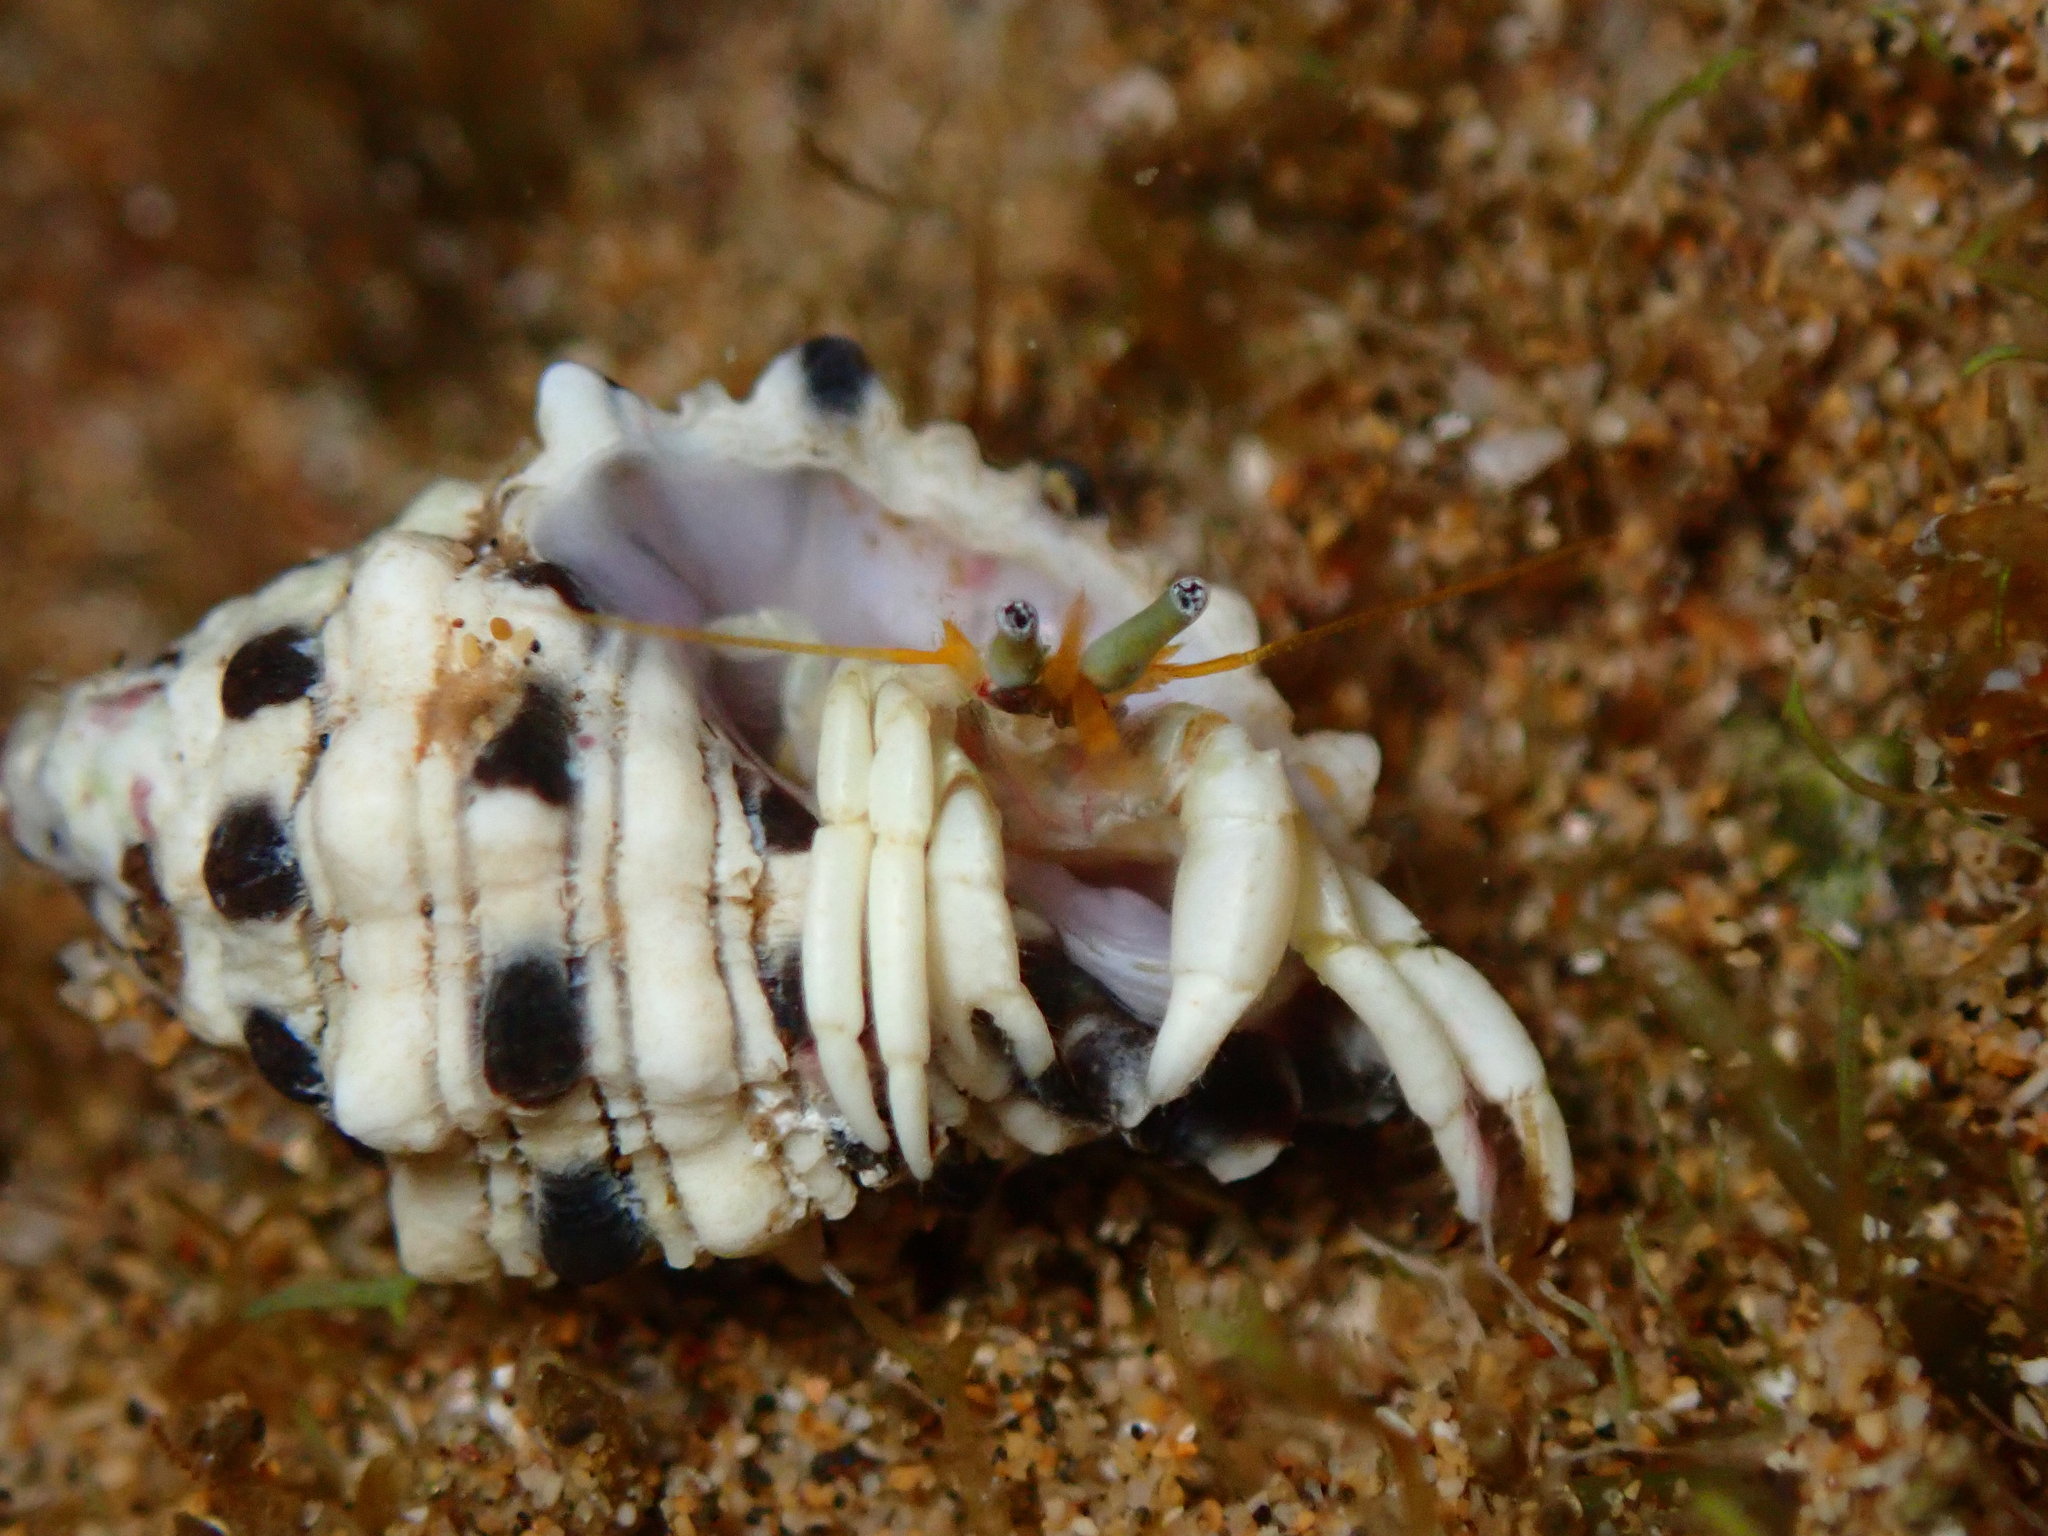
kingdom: Animalia
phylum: Arthropoda
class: Malacostraca
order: Decapoda
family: Diogenidae
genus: Calcinus
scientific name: Calcinus revi
